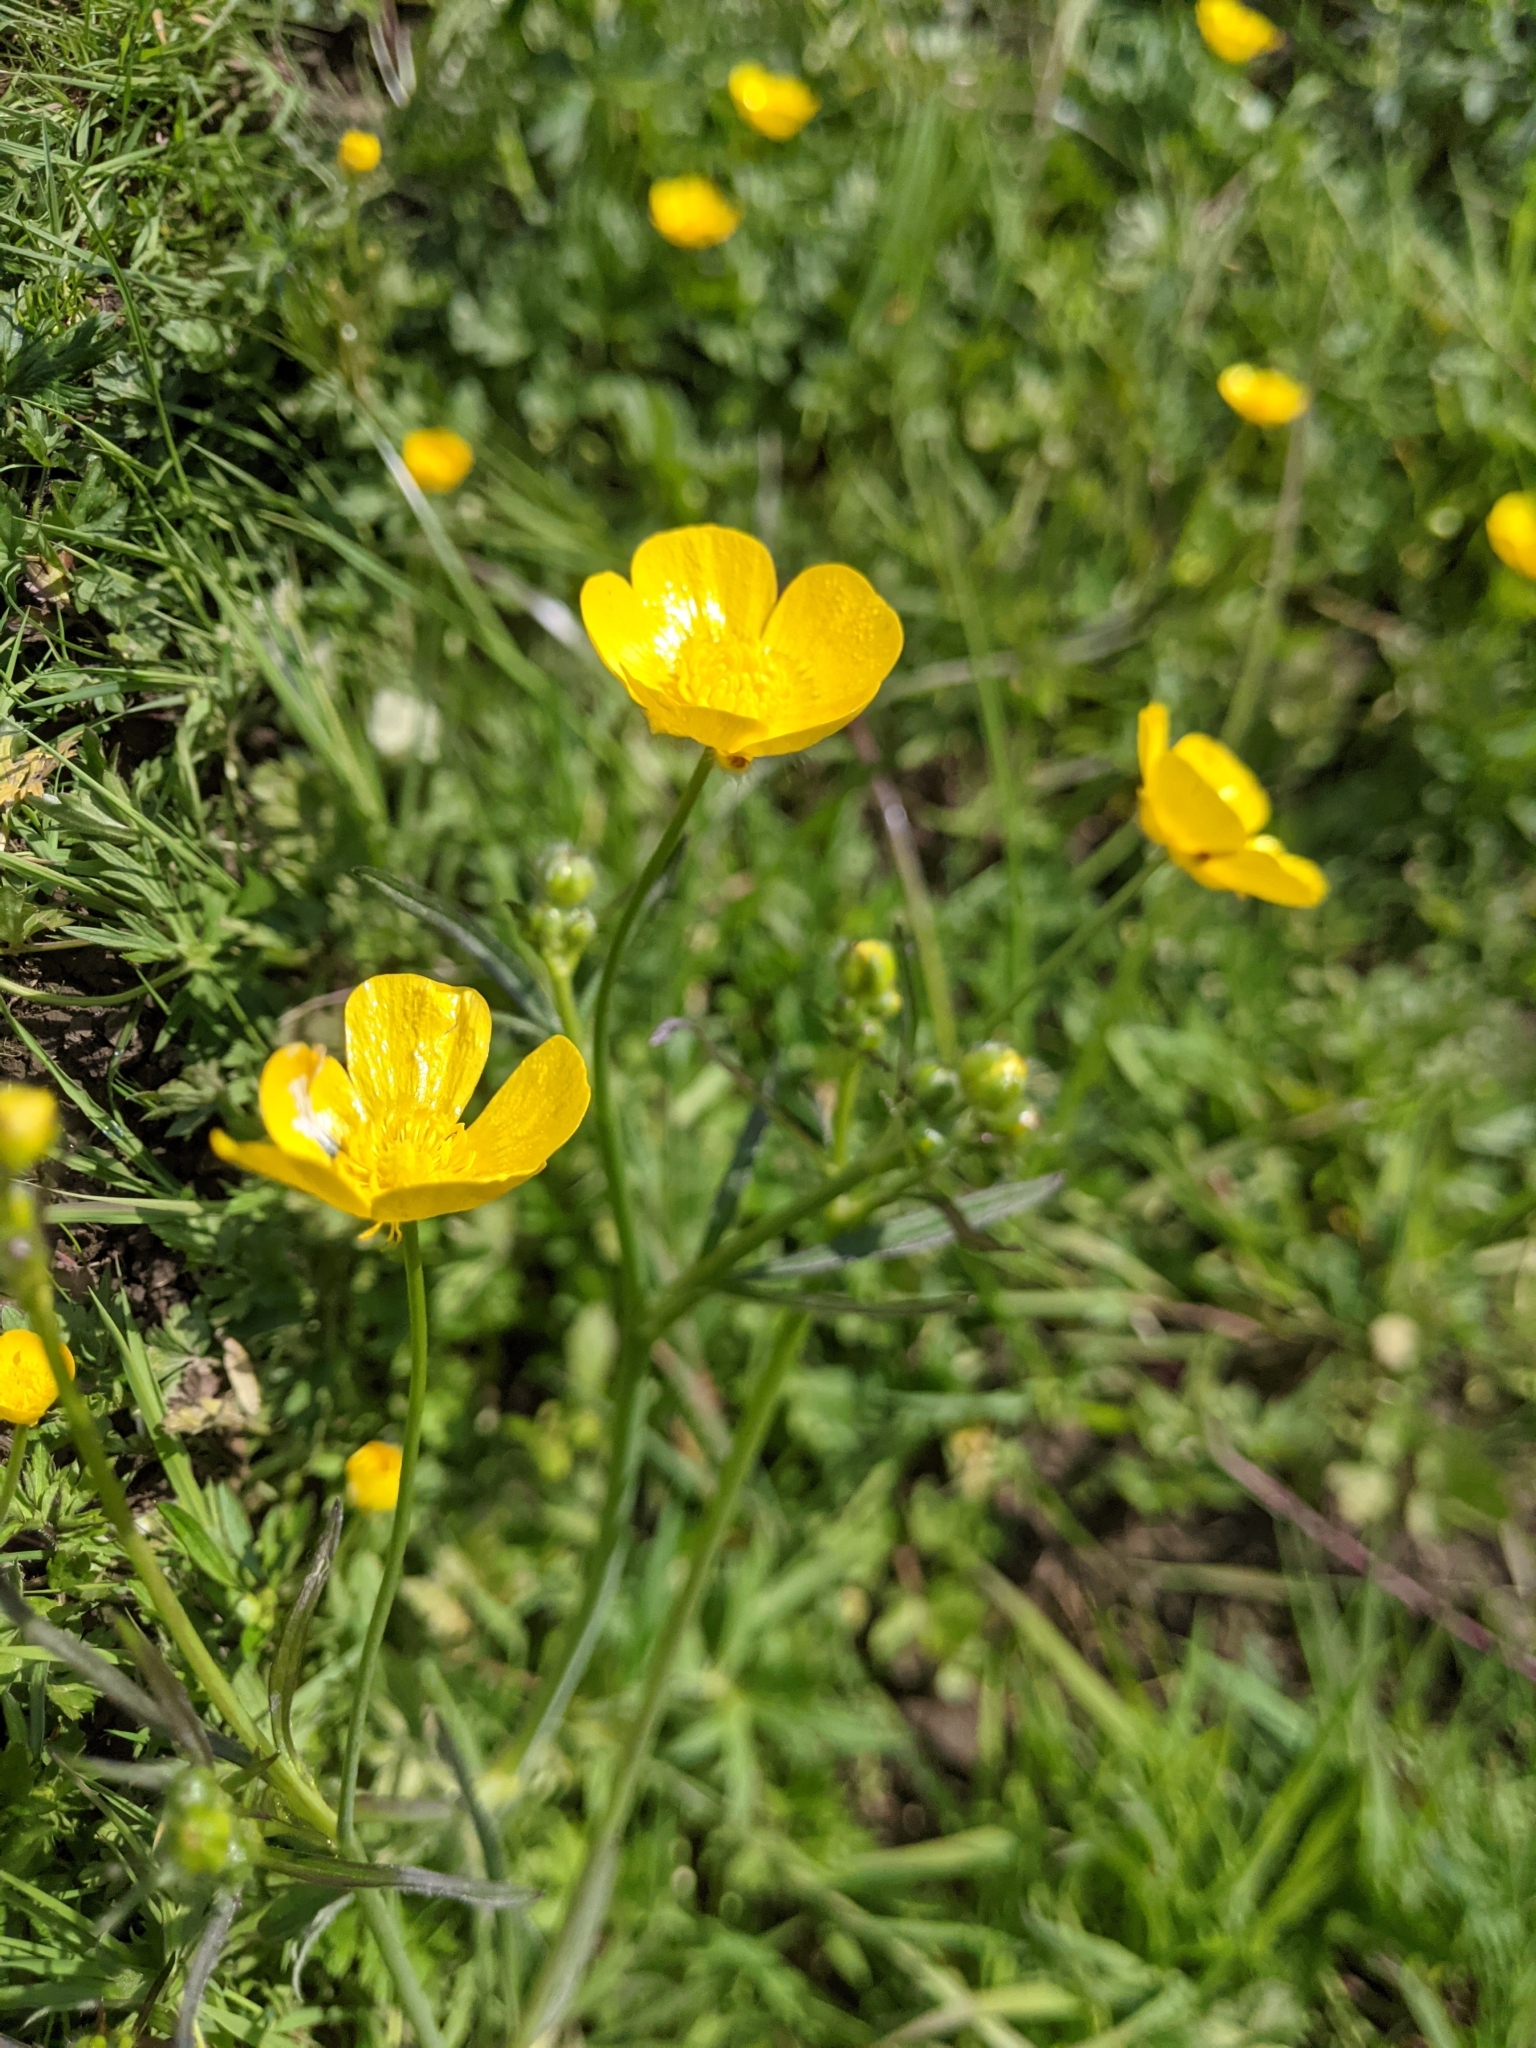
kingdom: Plantae
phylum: Tracheophyta
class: Magnoliopsida
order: Ranunculales
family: Ranunculaceae
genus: Ranunculus
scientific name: Ranunculus acris
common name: Meadow buttercup
